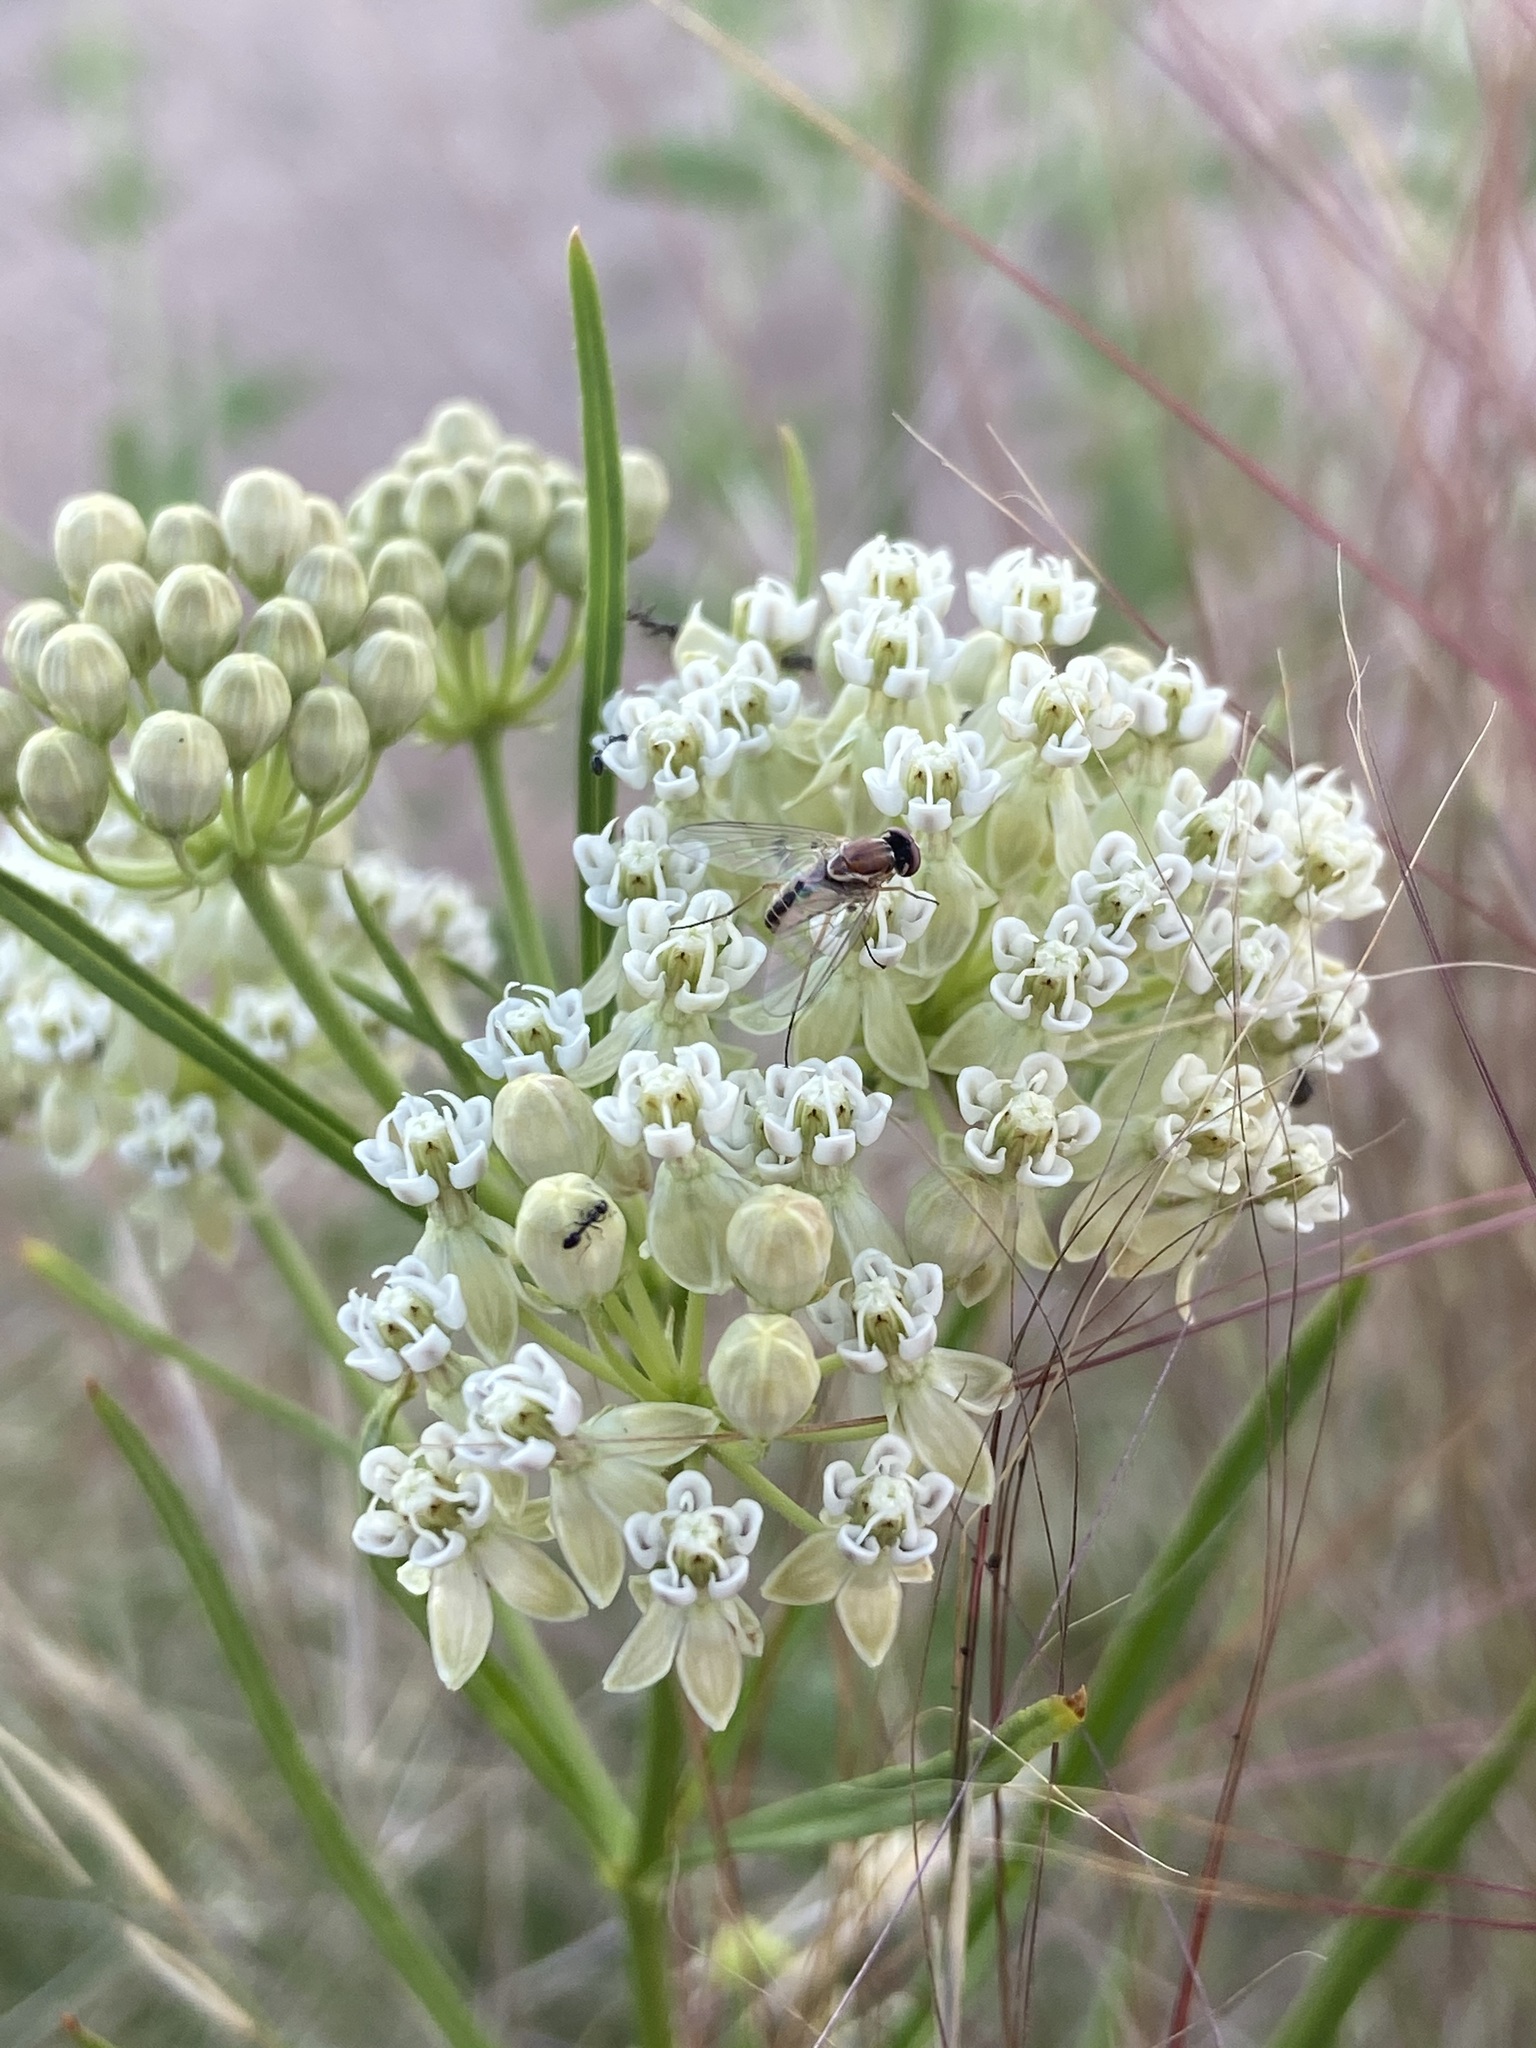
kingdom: Animalia
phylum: Arthropoda
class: Insecta
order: Diptera
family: Bombyliidae
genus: Poecilognathus
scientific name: Poecilognathus
